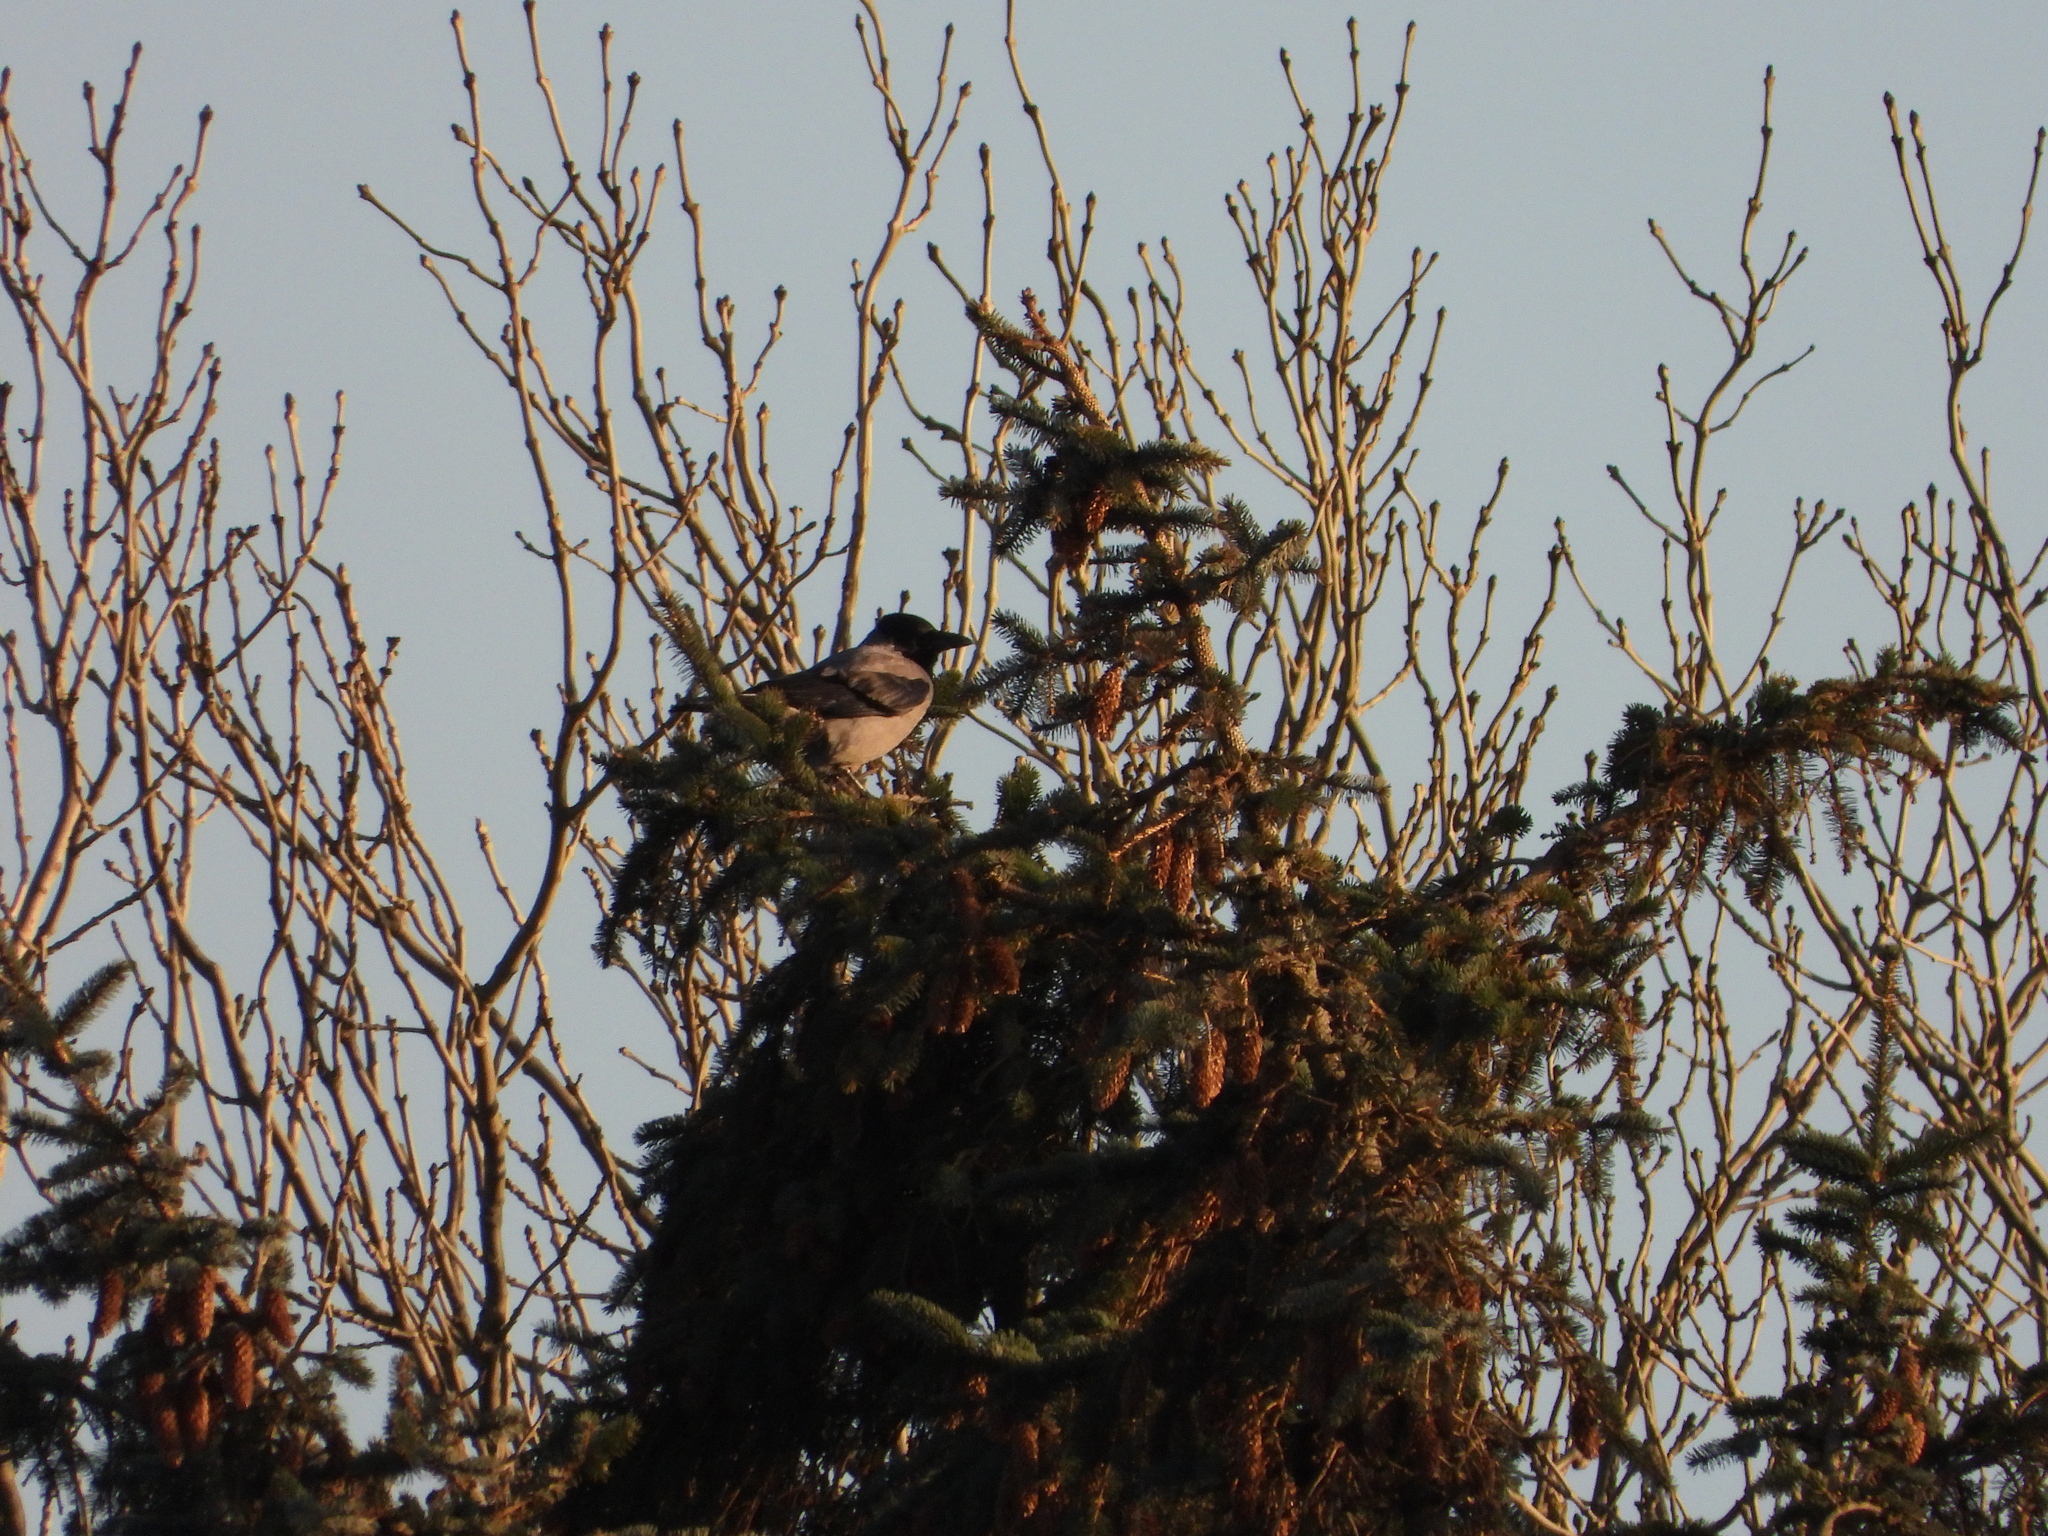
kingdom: Animalia
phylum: Chordata
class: Aves
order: Passeriformes
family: Corvidae
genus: Corvus
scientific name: Corvus cornix
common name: Hooded crow
